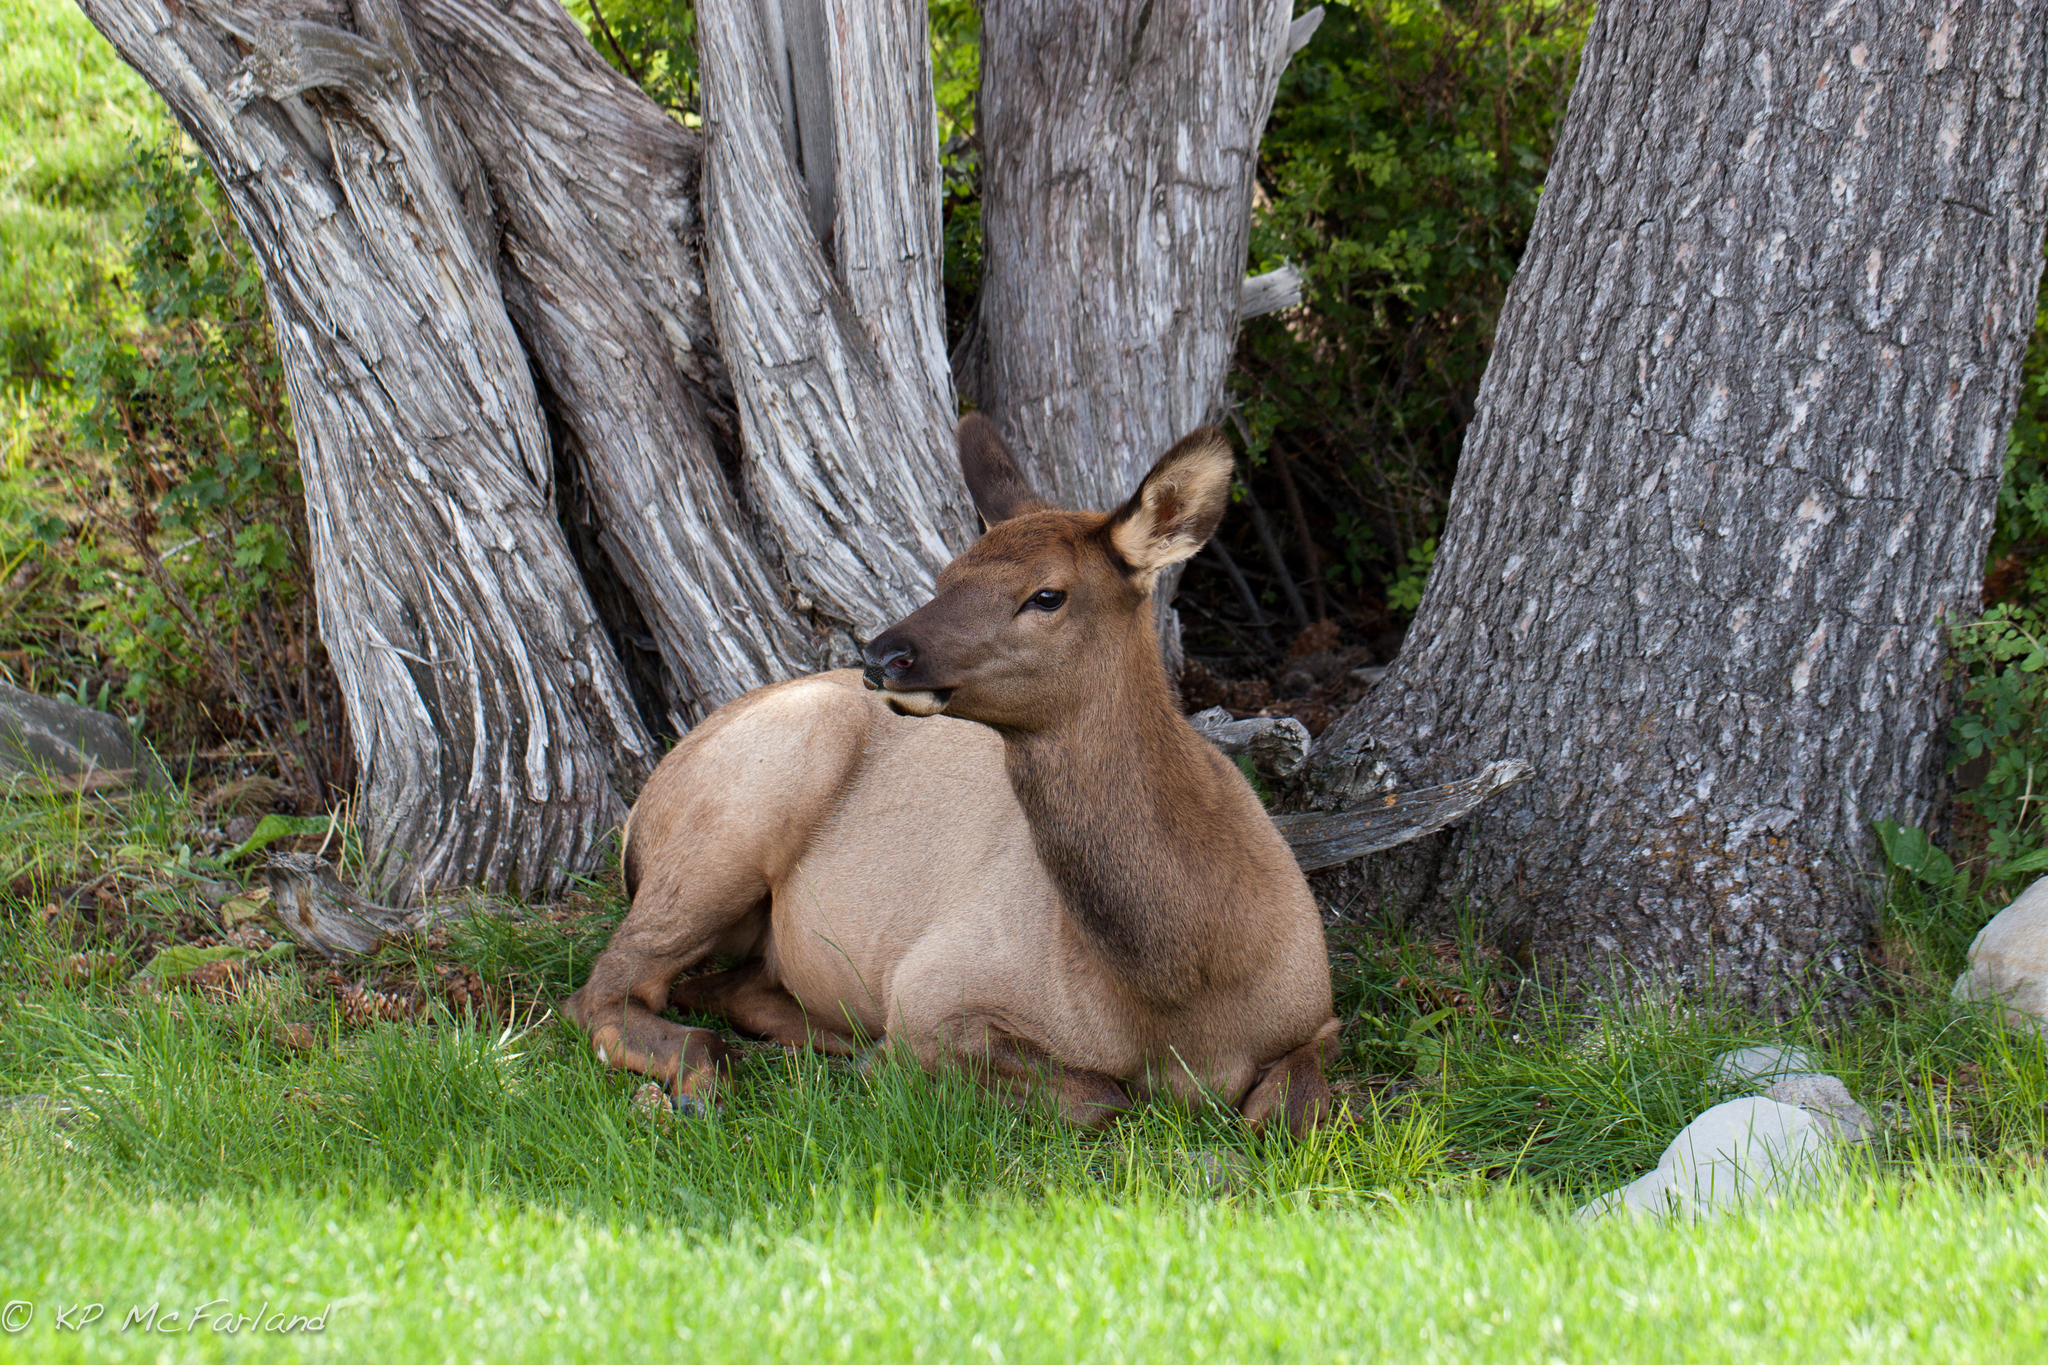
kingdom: Animalia
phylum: Chordata
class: Mammalia
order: Artiodactyla
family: Cervidae
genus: Cervus
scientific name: Cervus elaphus
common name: Red deer
